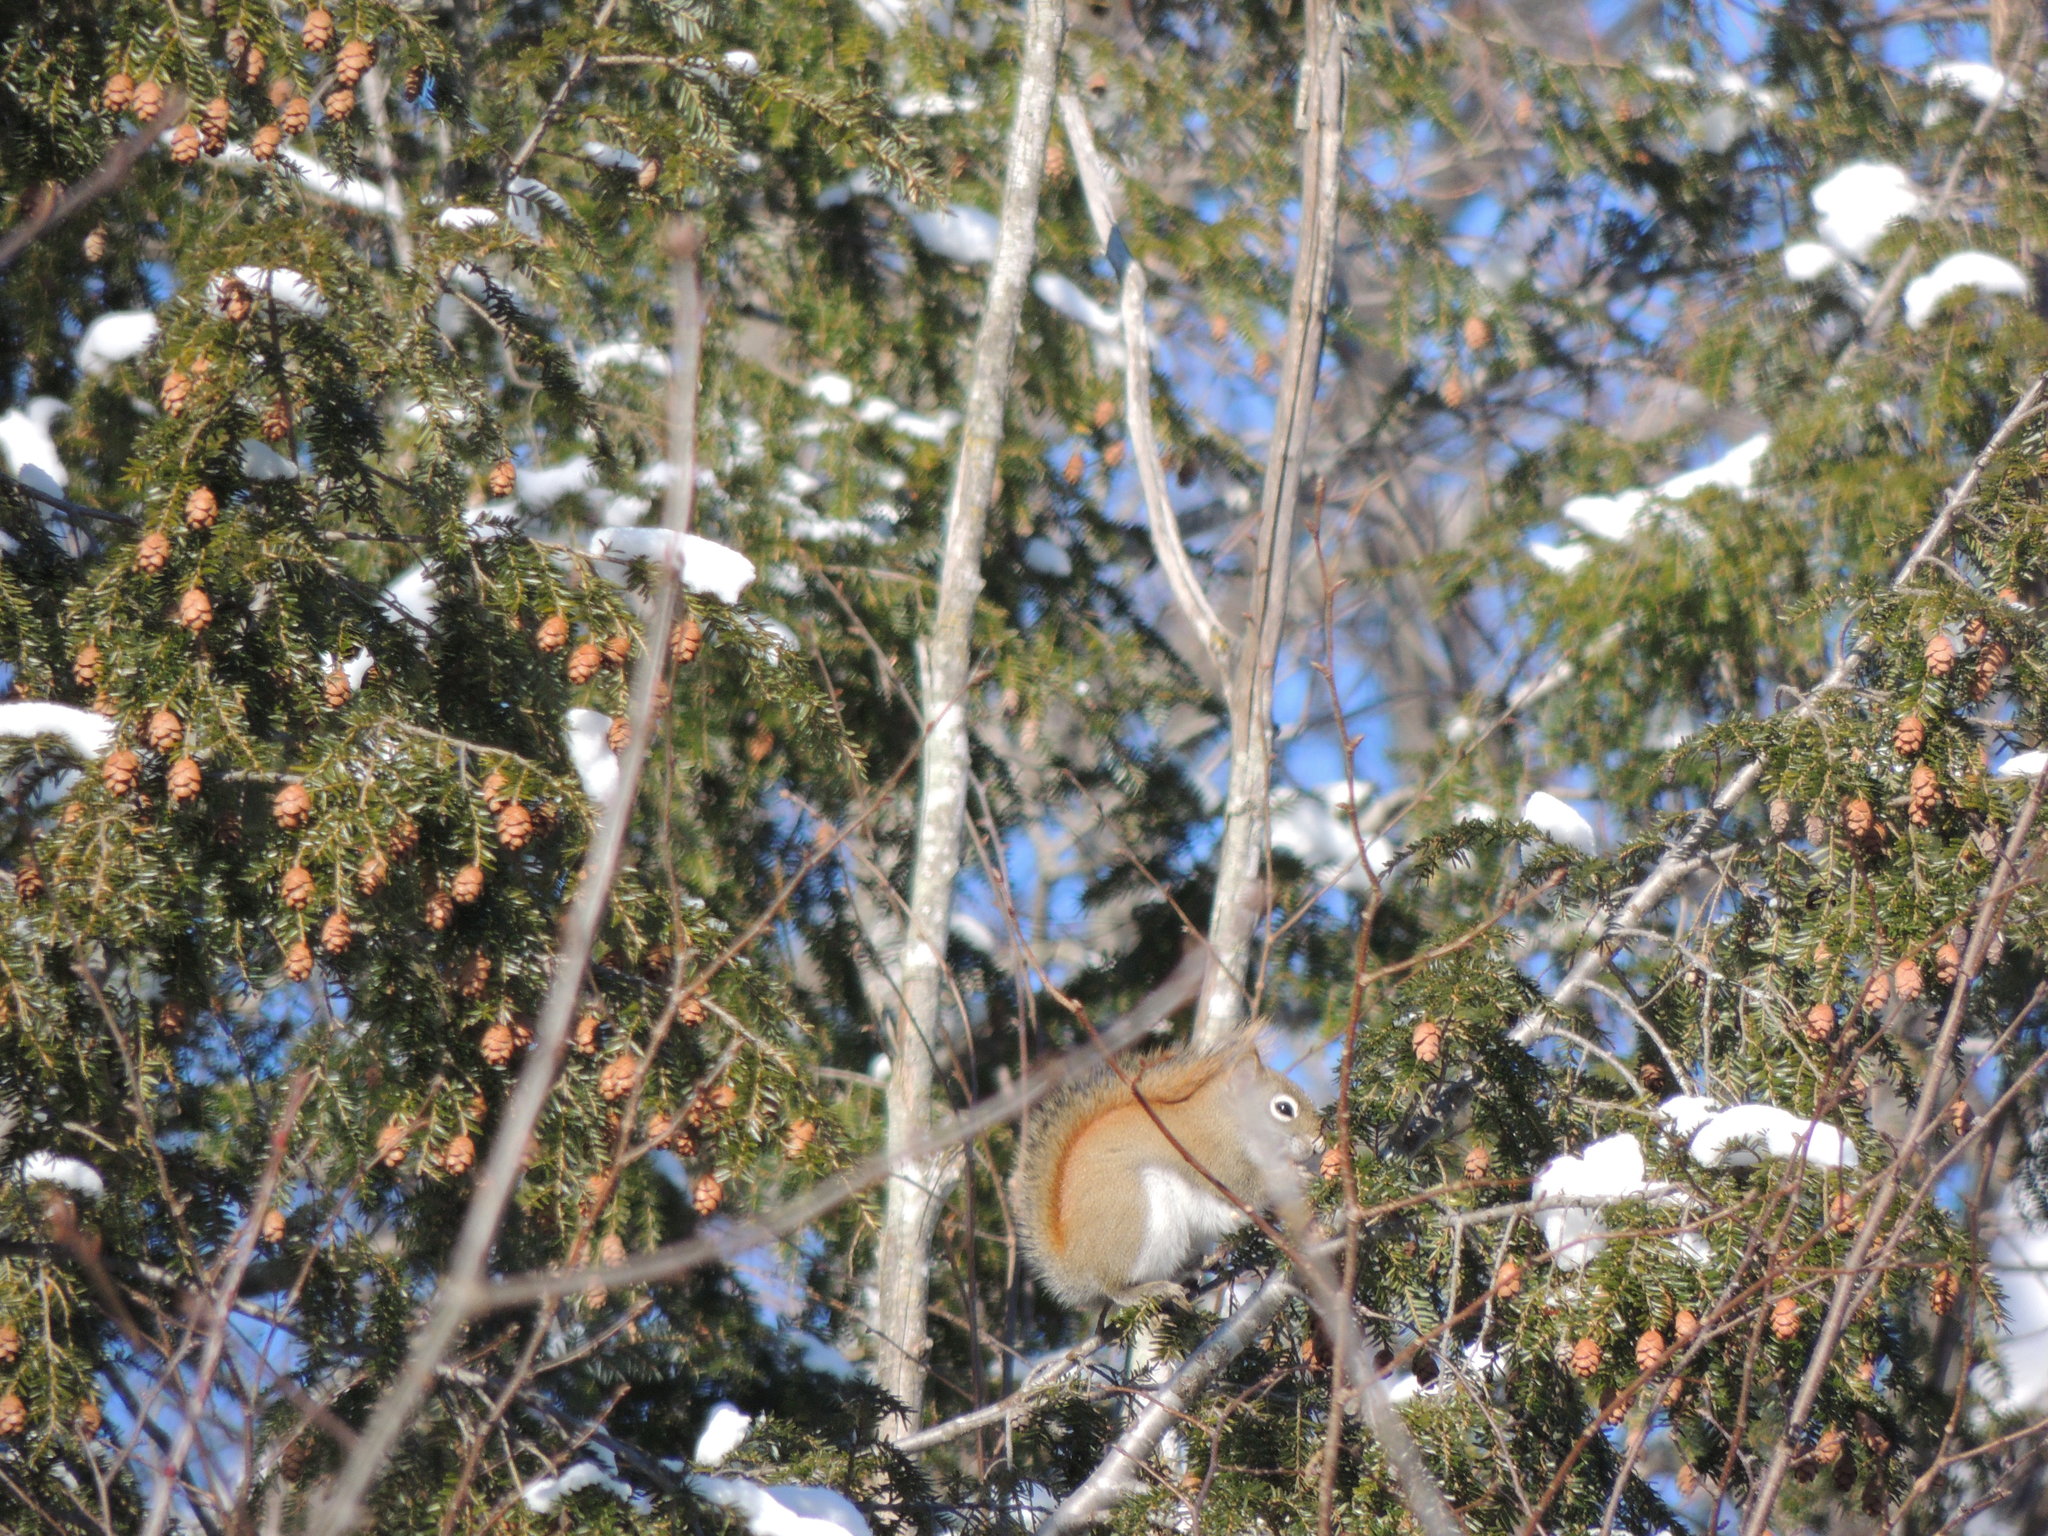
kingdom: Animalia
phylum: Chordata
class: Mammalia
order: Rodentia
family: Sciuridae
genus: Tamiasciurus
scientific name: Tamiasciurus hudsonicus
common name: Red squirrel
